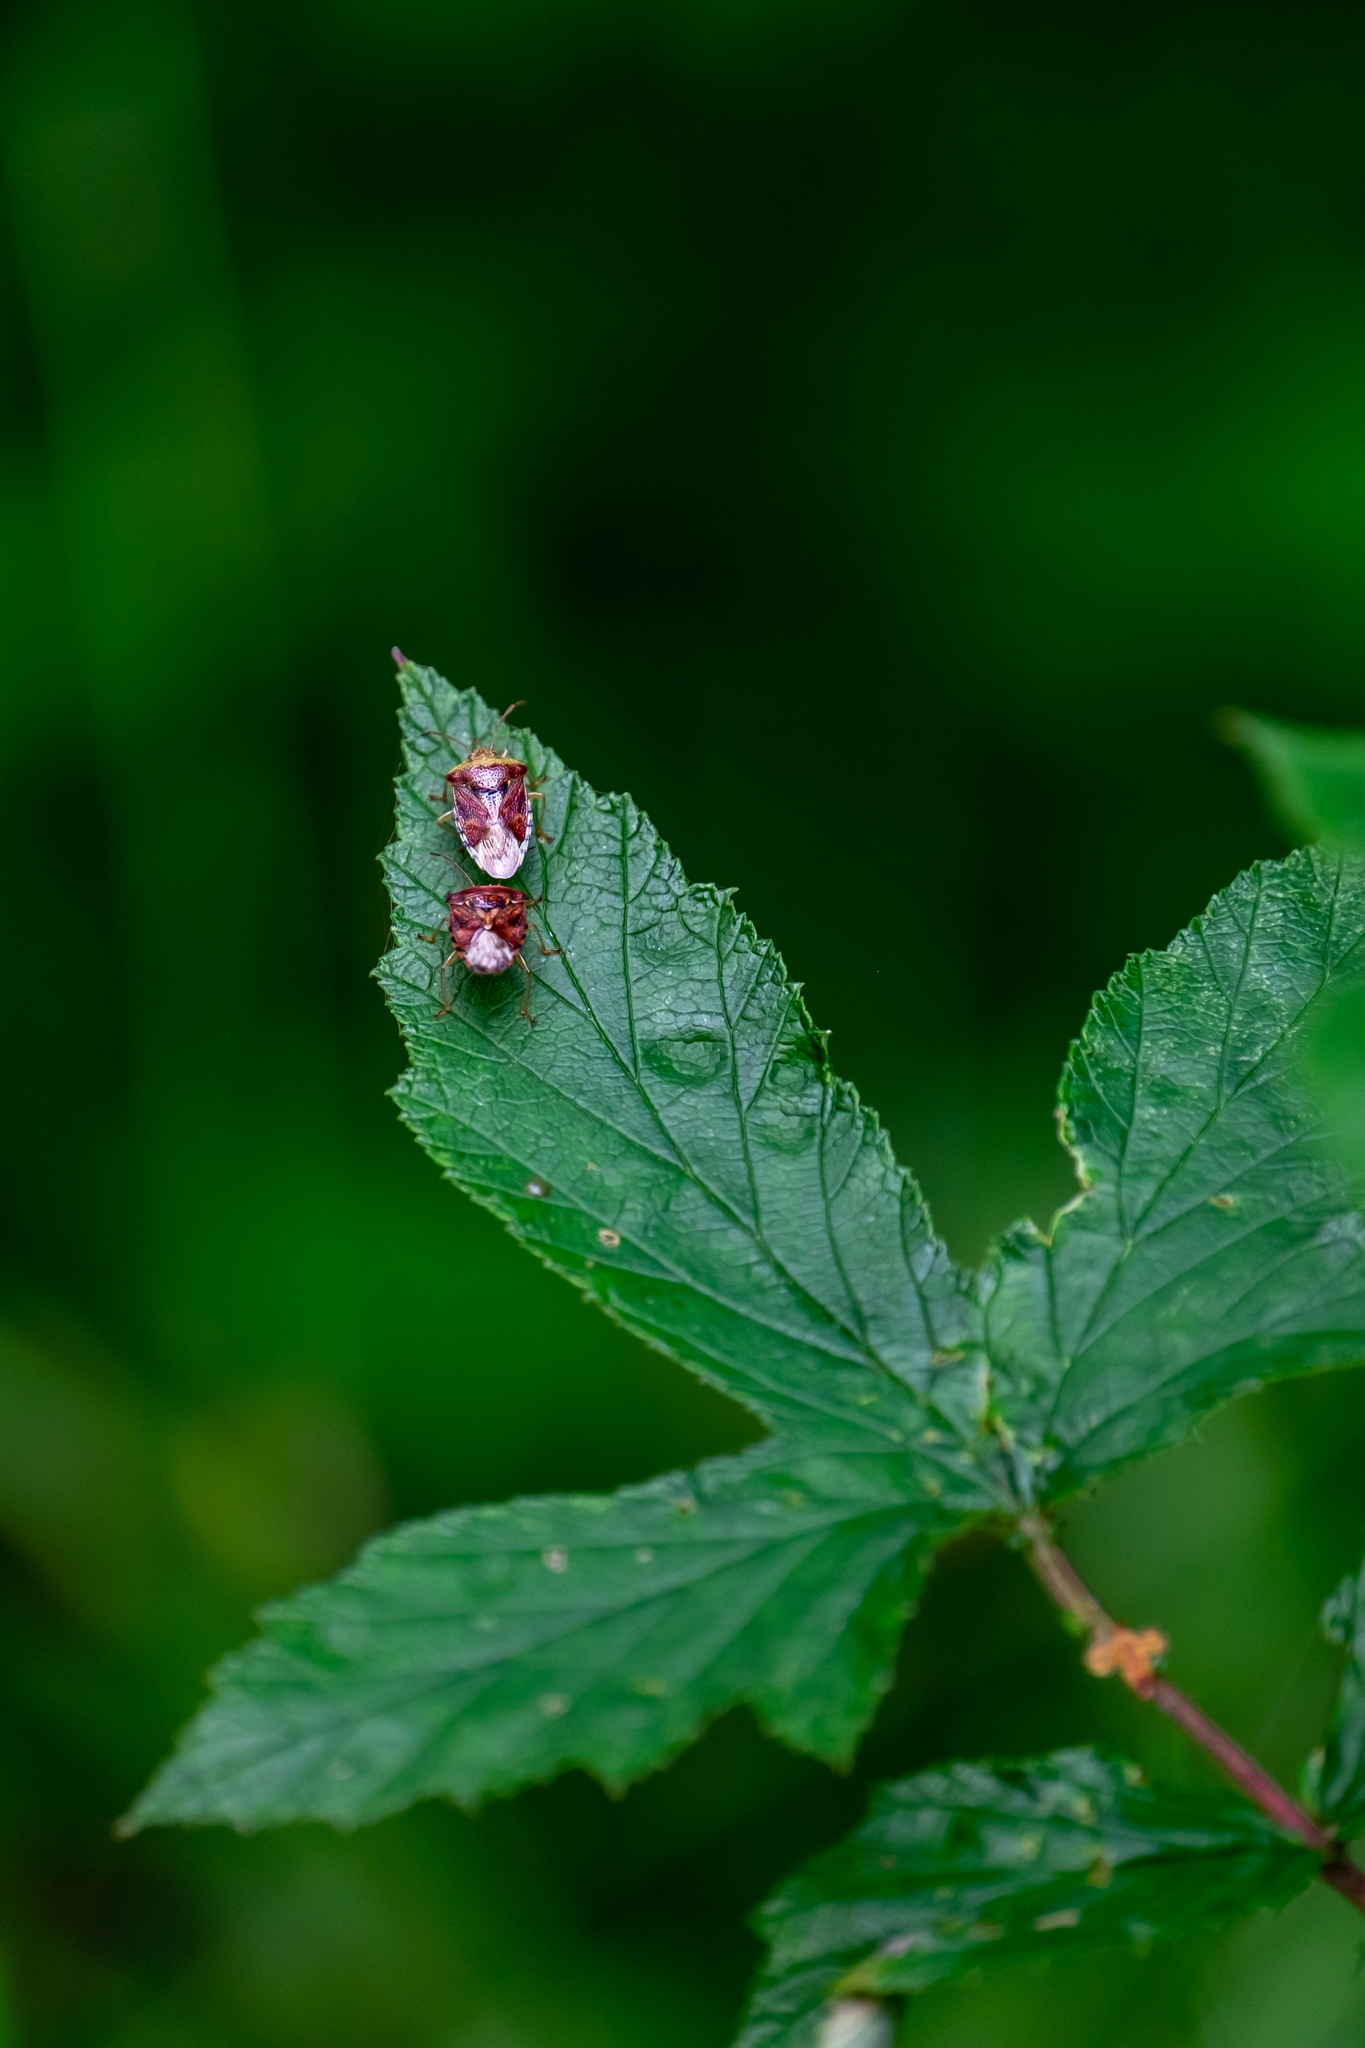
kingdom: Animalia
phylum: Arthropoda
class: Insecta
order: Hemiptera
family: Acanthosomatidae
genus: Elasmucha
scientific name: Elasmucha grisea
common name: Parent bug
